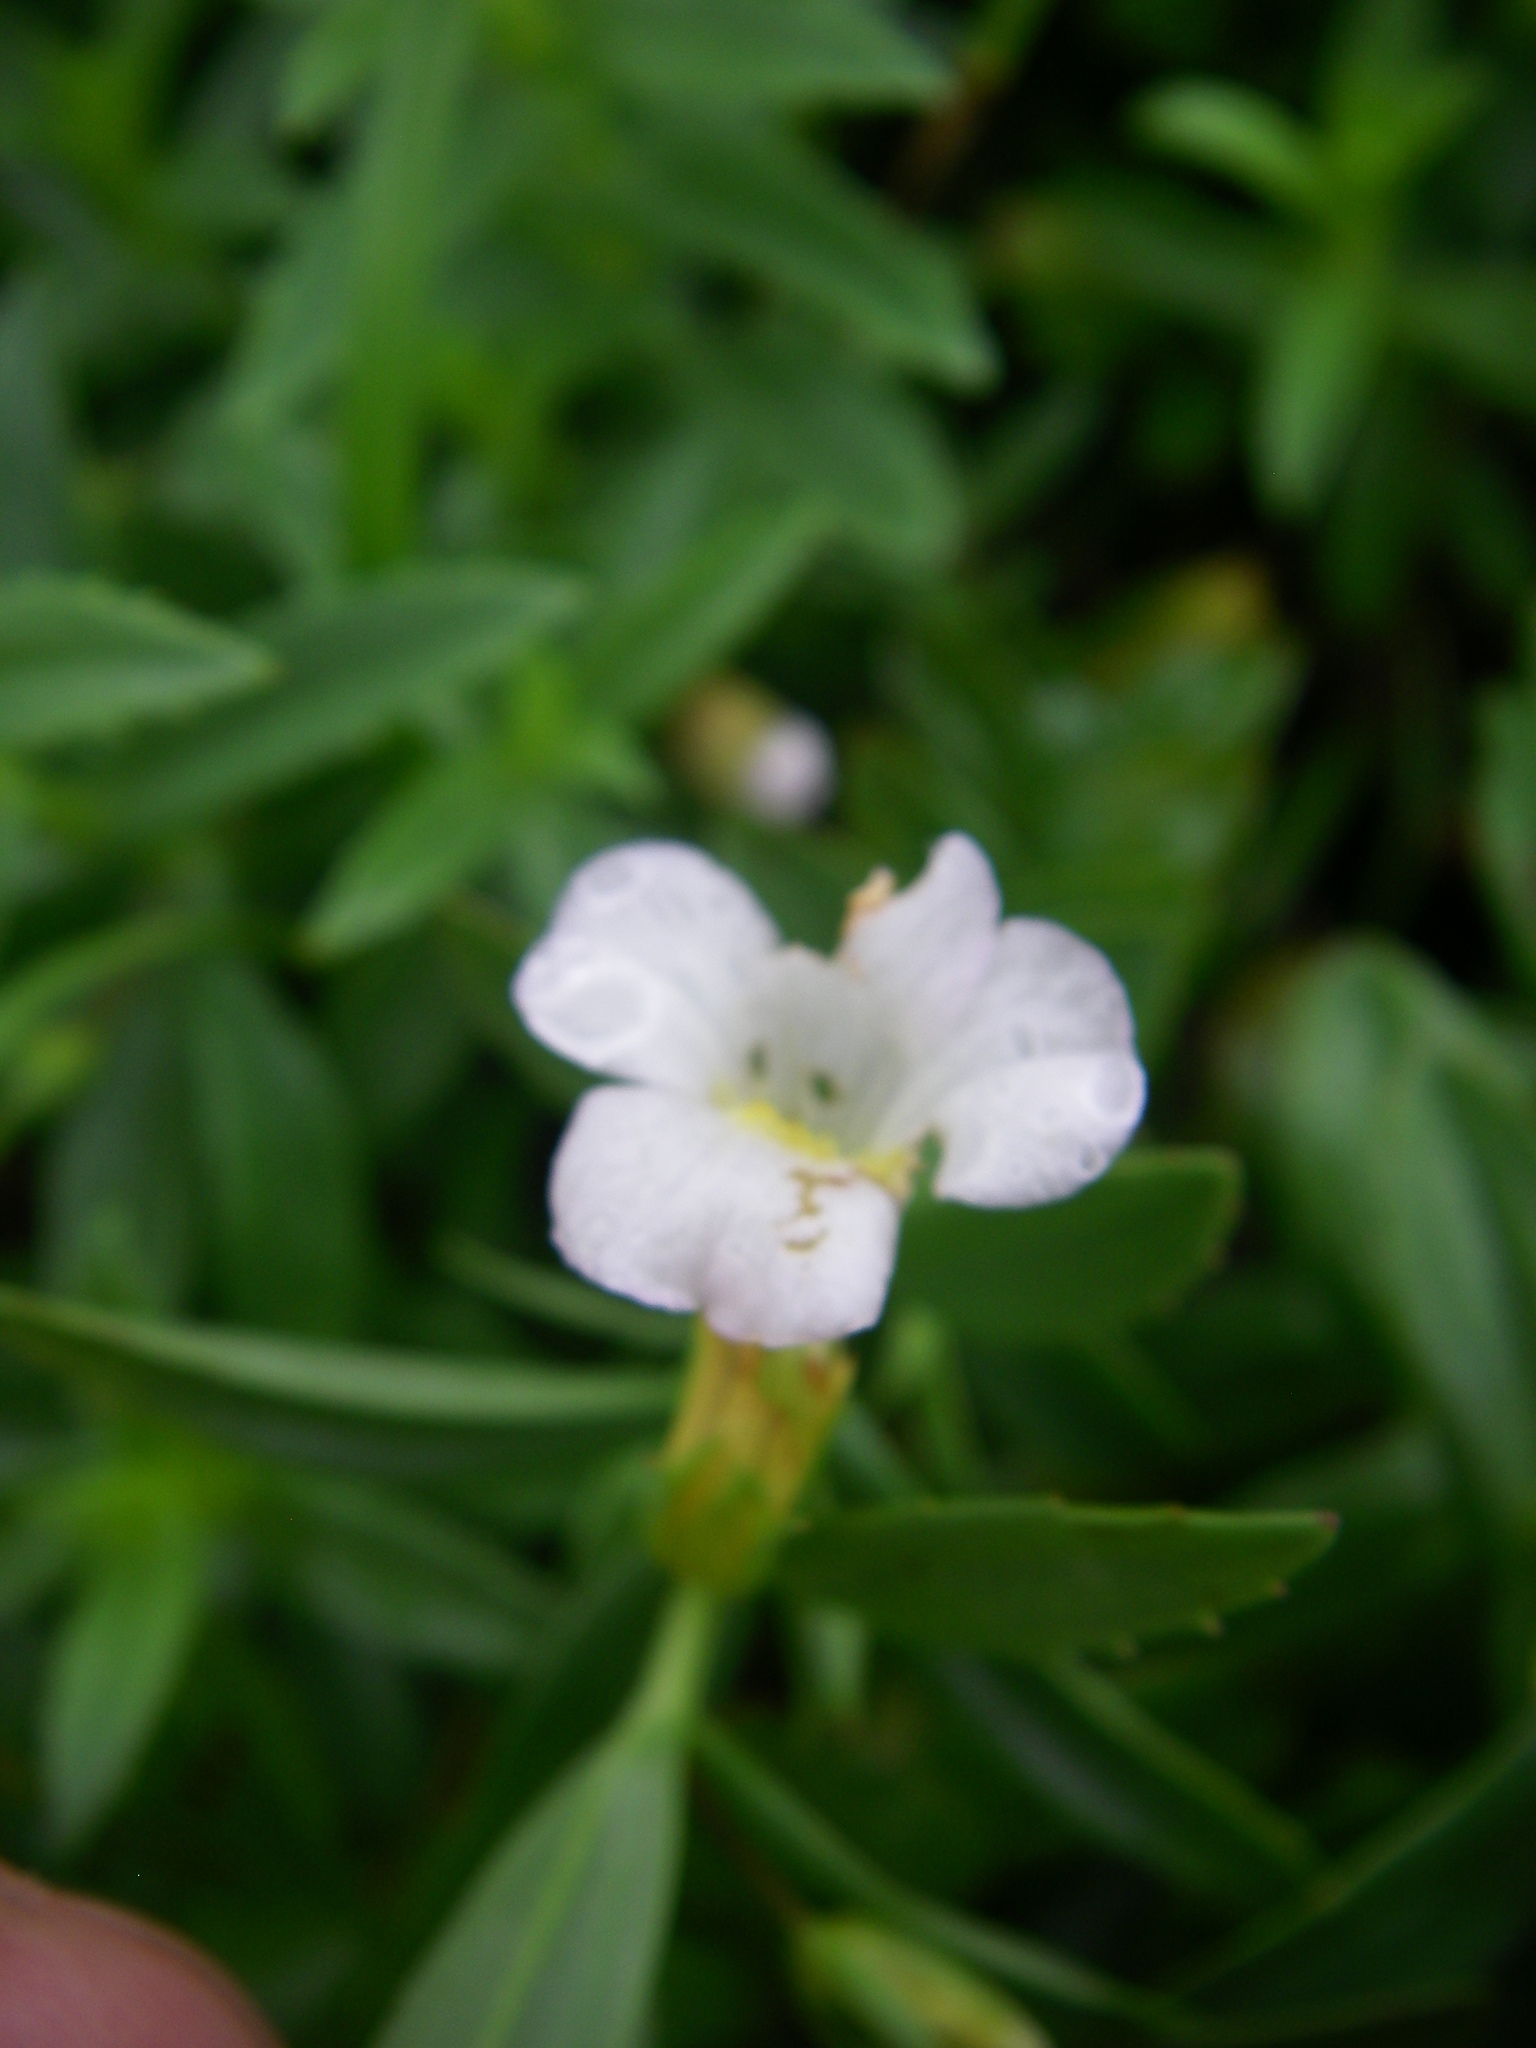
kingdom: Plantae
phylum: Tracheophyta
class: Magnoliopsida
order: Lamiales
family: Plantaginaceae
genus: Gratiola
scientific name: Gratiola officinalis
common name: Gratiola
